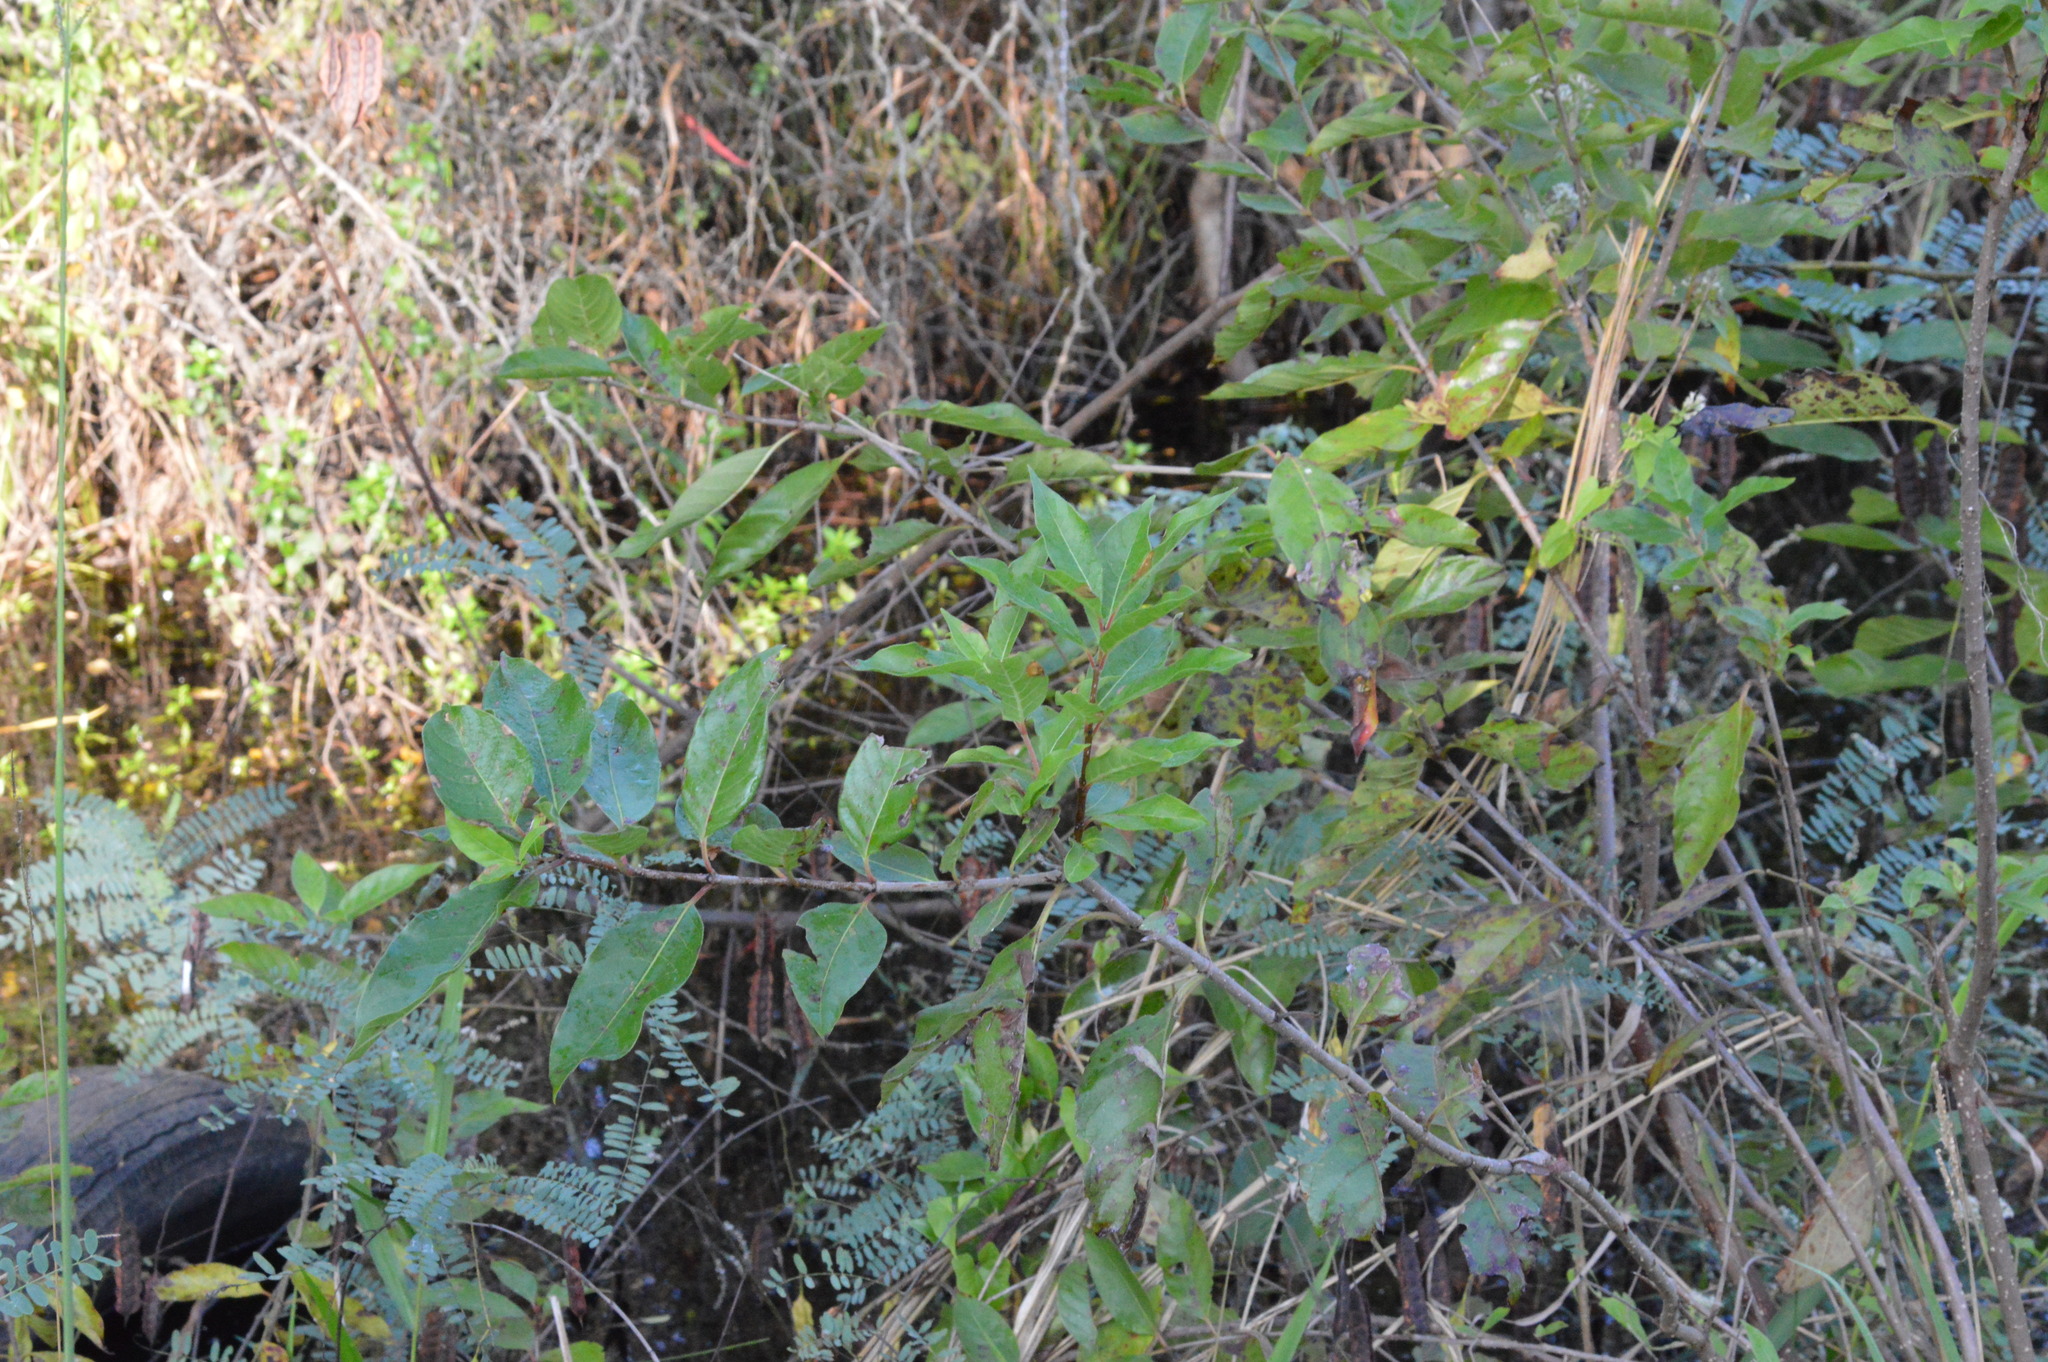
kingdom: Plantae
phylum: Tracheophyta
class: Magnoliopsida
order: Gentianales
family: Rubiaceae
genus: Cephalanthus
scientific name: Cephalanthus occidentalis
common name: Button-willow
